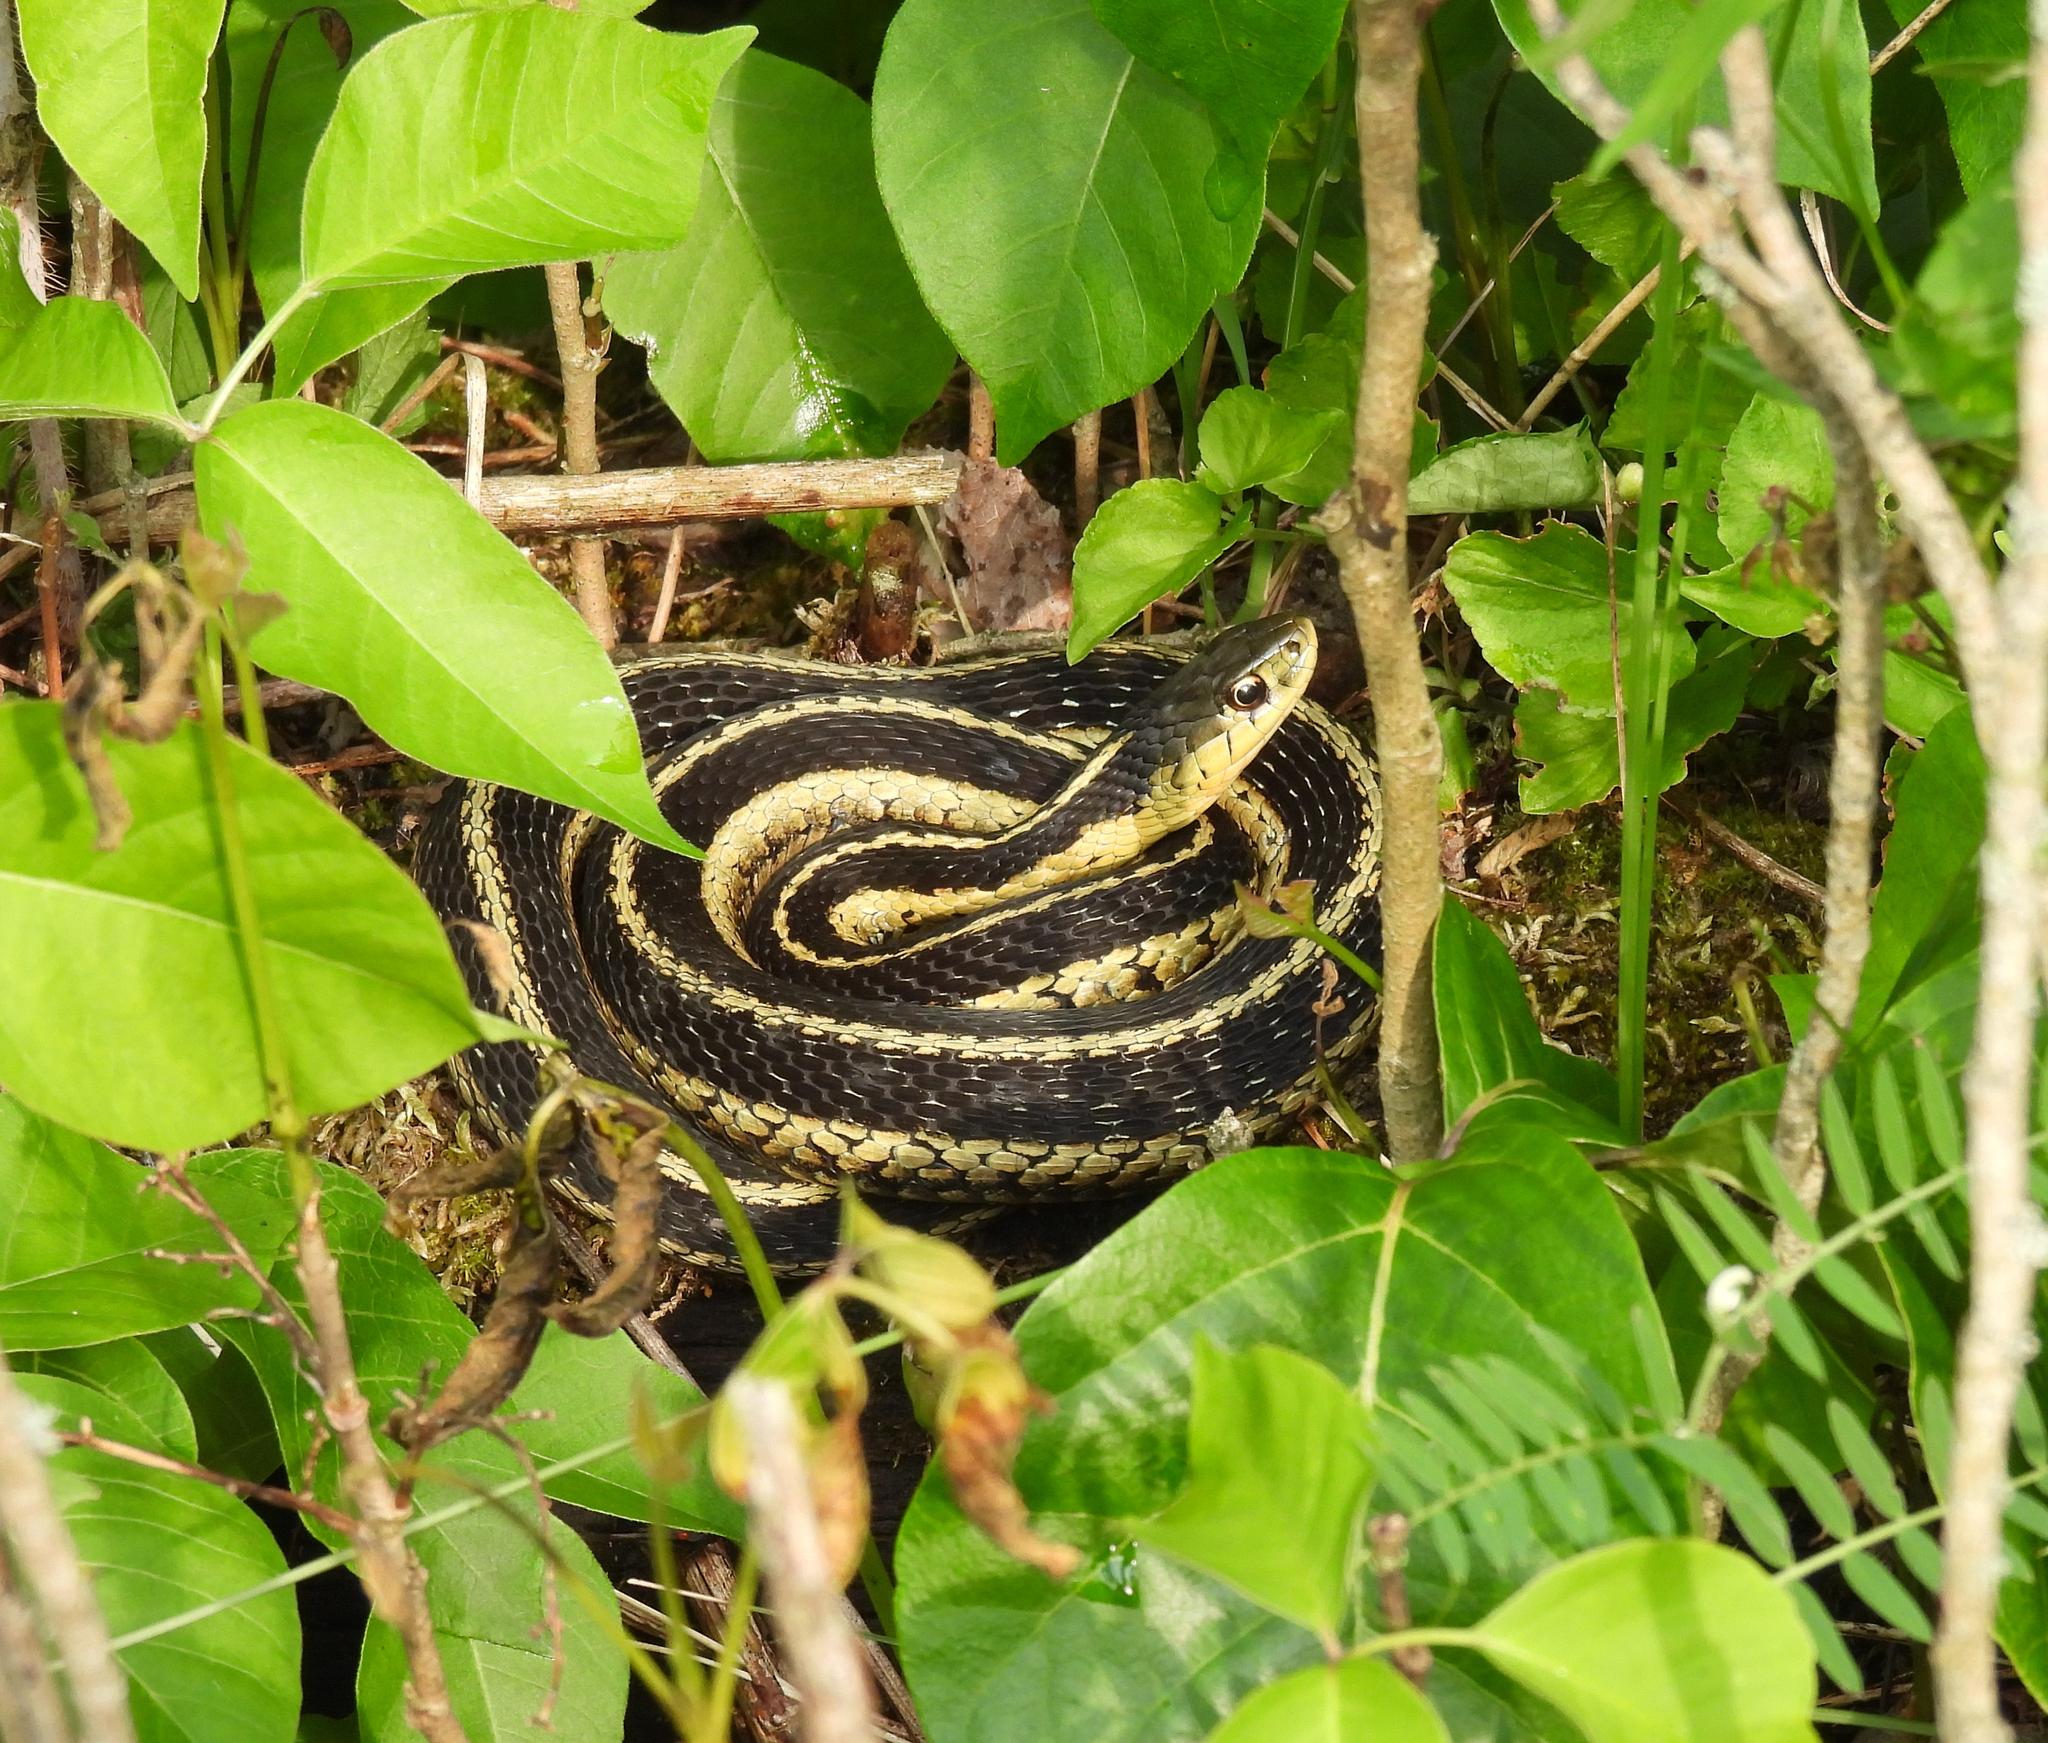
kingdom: Animalia
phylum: Chordata
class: Squamata
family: Colubridae
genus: Thamnophis
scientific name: Thamnophis sirtalis
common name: Common garter snake
